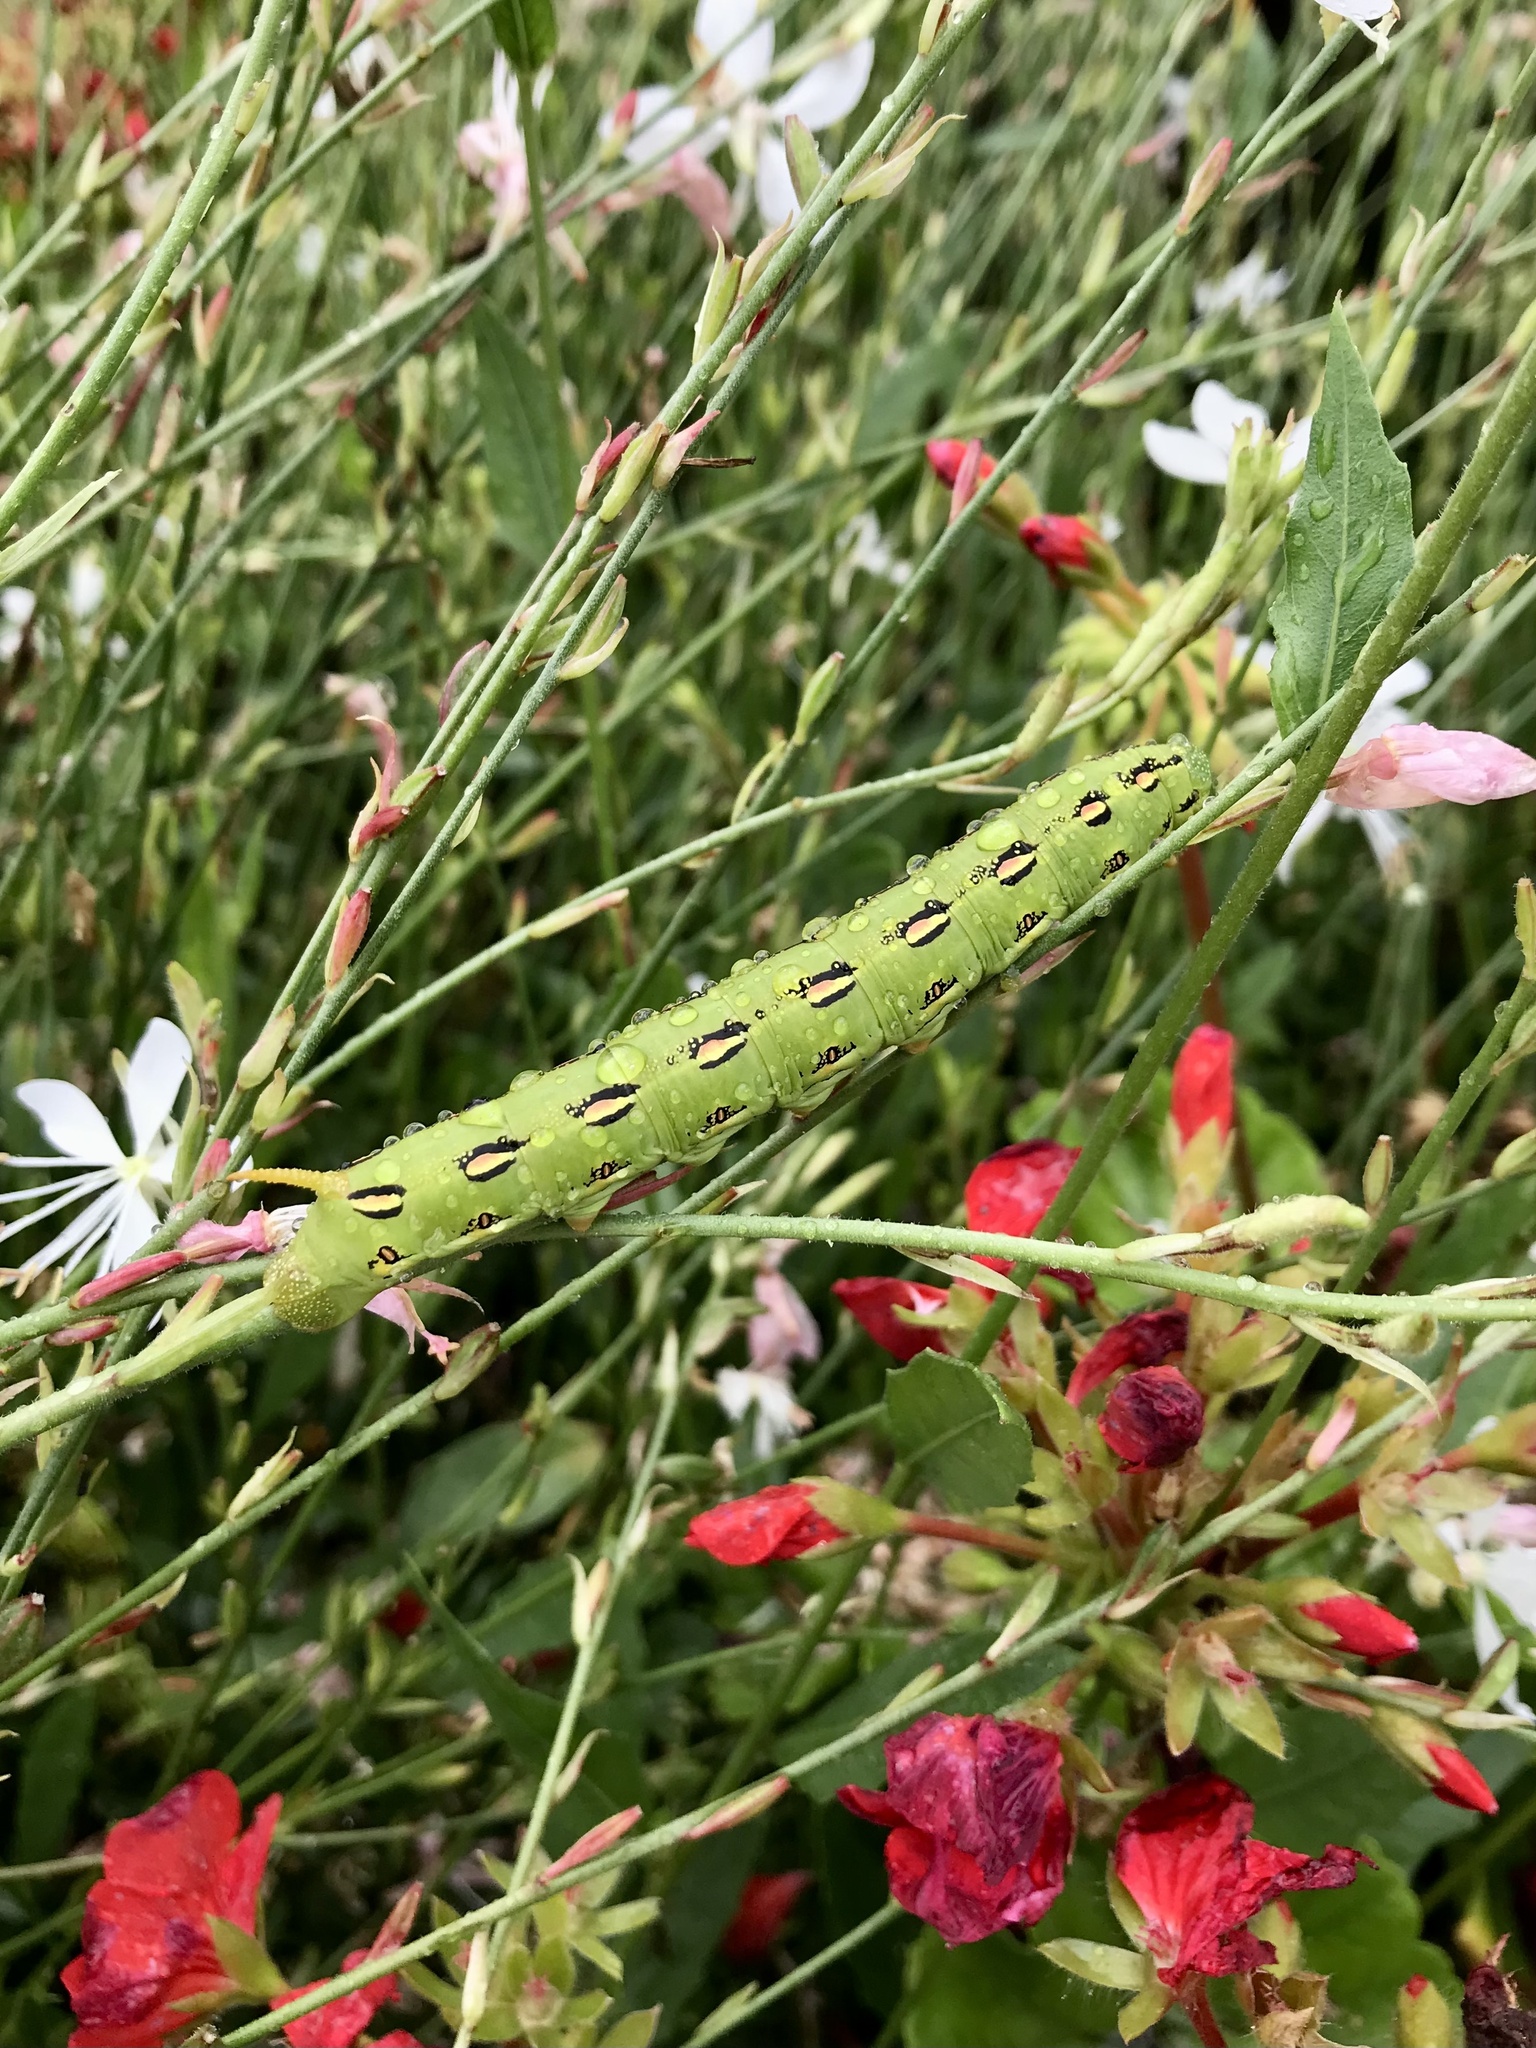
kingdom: Animalia
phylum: Arthropoda
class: Insecta
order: Lepidoptera
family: Sphingidae
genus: Hyles
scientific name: Hyles lineata
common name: White-lined sphinx
